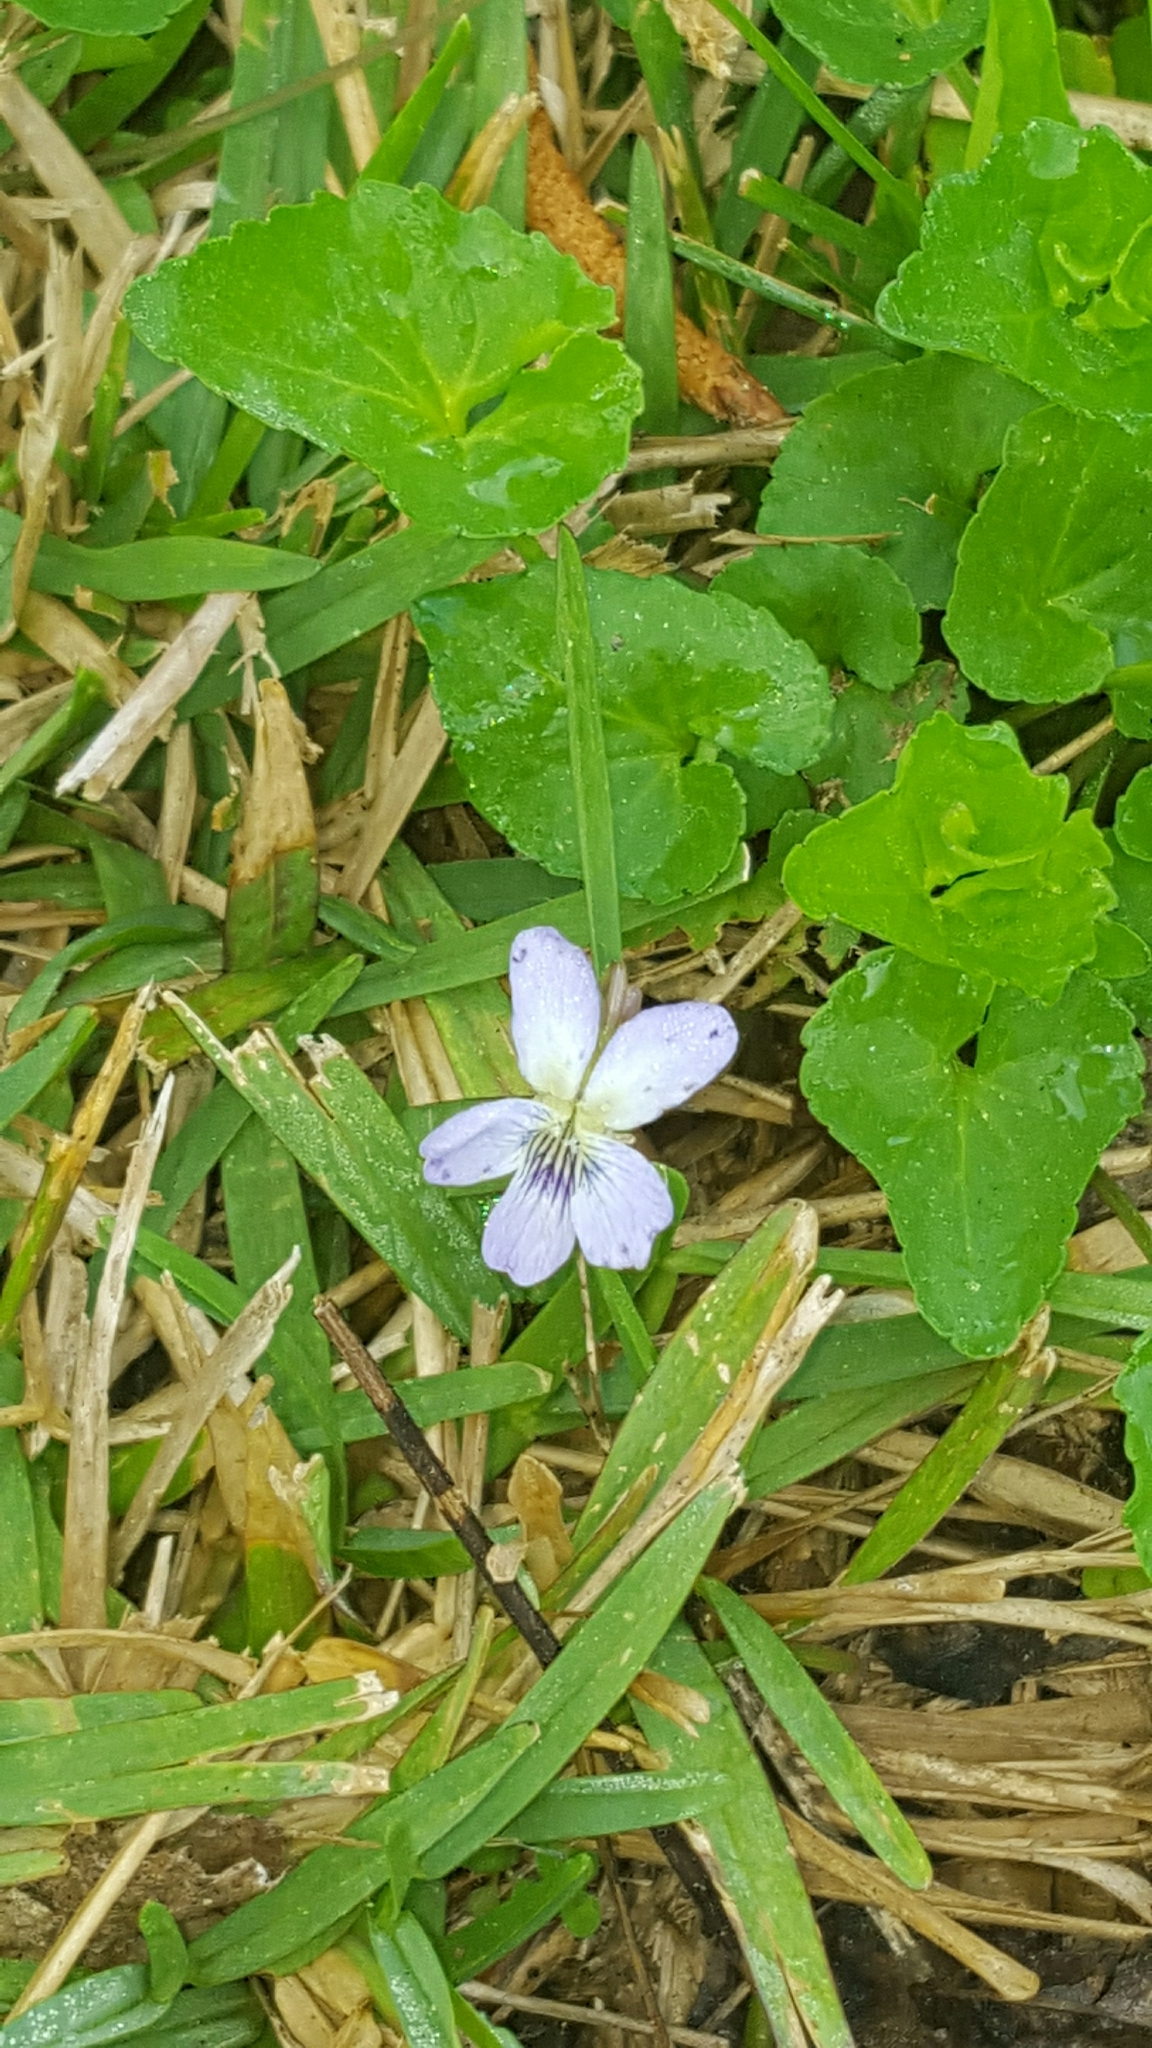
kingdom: Plantae
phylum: Tracheophyta
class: Magnoliopsida
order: Malpighiales
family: Violaceae
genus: Viola
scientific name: Viola missouriensis
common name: Missouri violet
